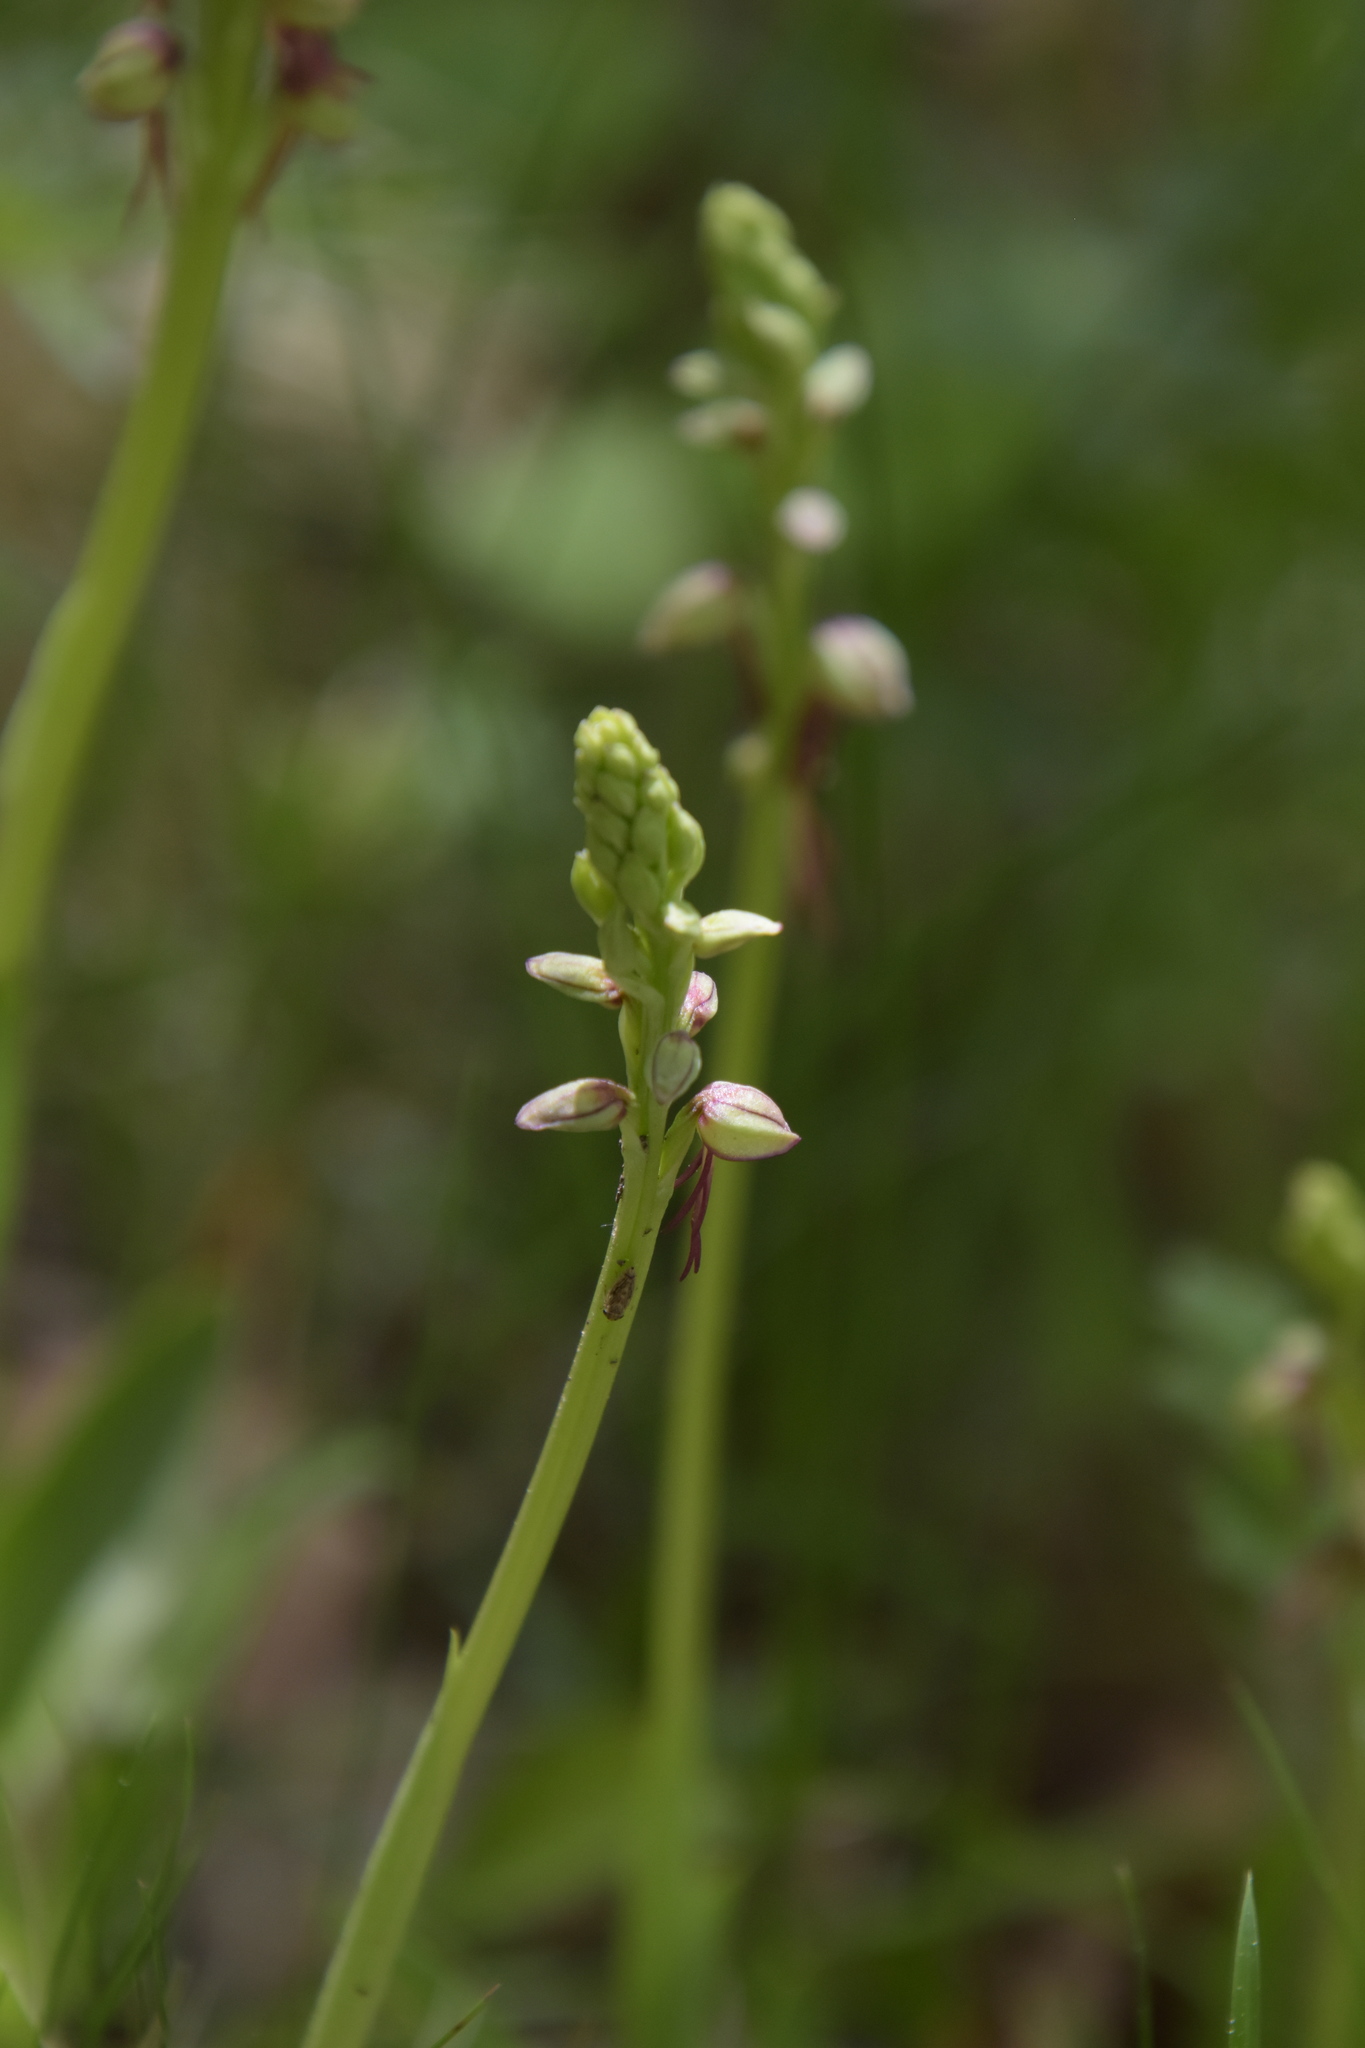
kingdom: Plantae
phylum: Tracheophyta
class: Liliopsida
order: Asparagales
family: Orchidaceae
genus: Orchis
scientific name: Orchis anthropophora
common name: Man orchid
